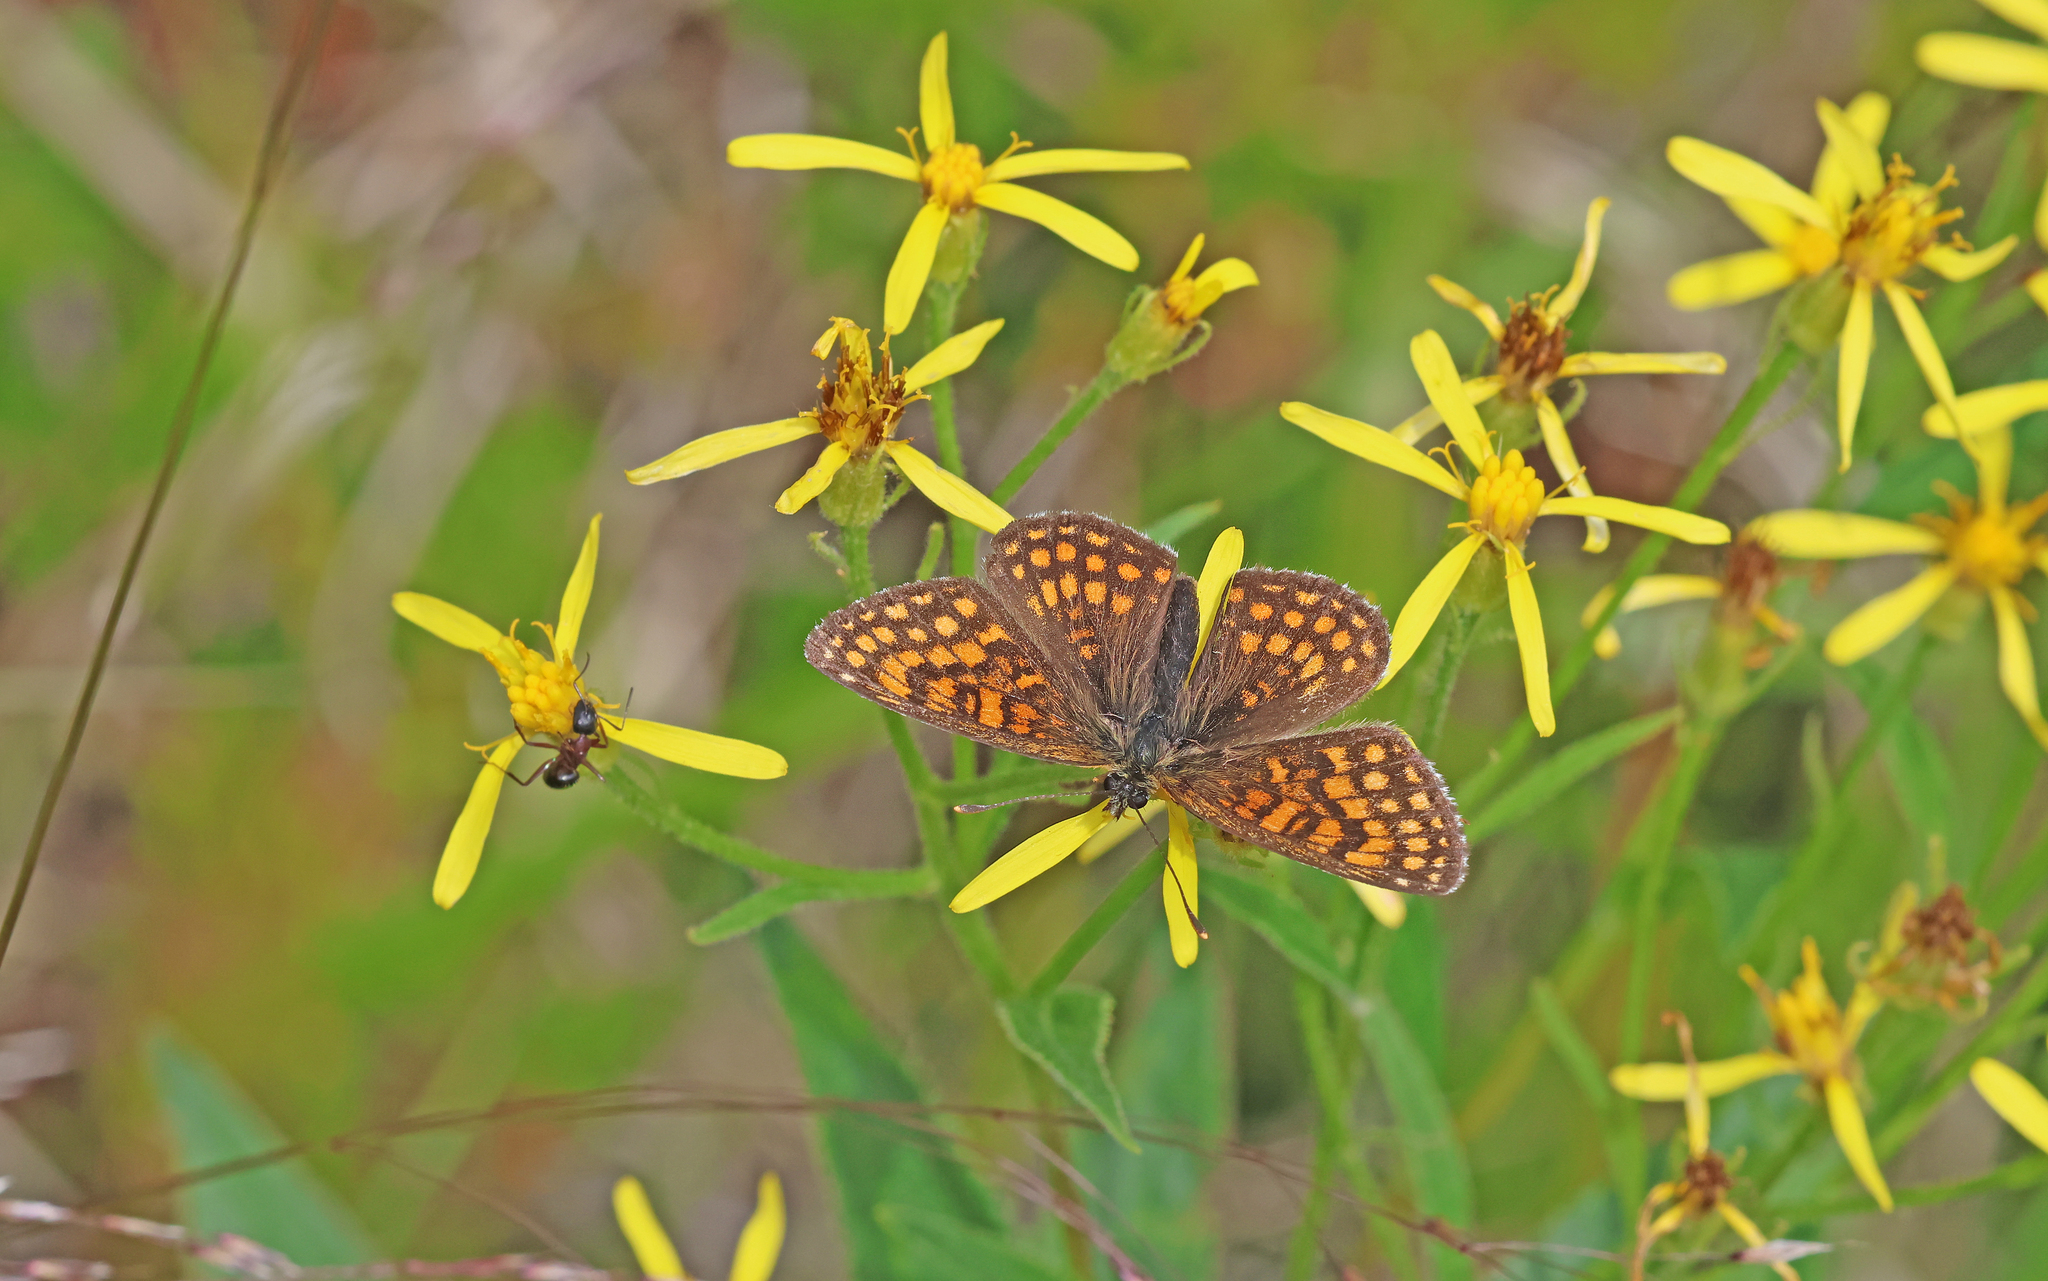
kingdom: Animalia
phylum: Arthropoda
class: Insecta
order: Lepidoptera
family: Nymphalidae
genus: Melitaea
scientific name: Melitaea athalia
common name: Heath fritillary
